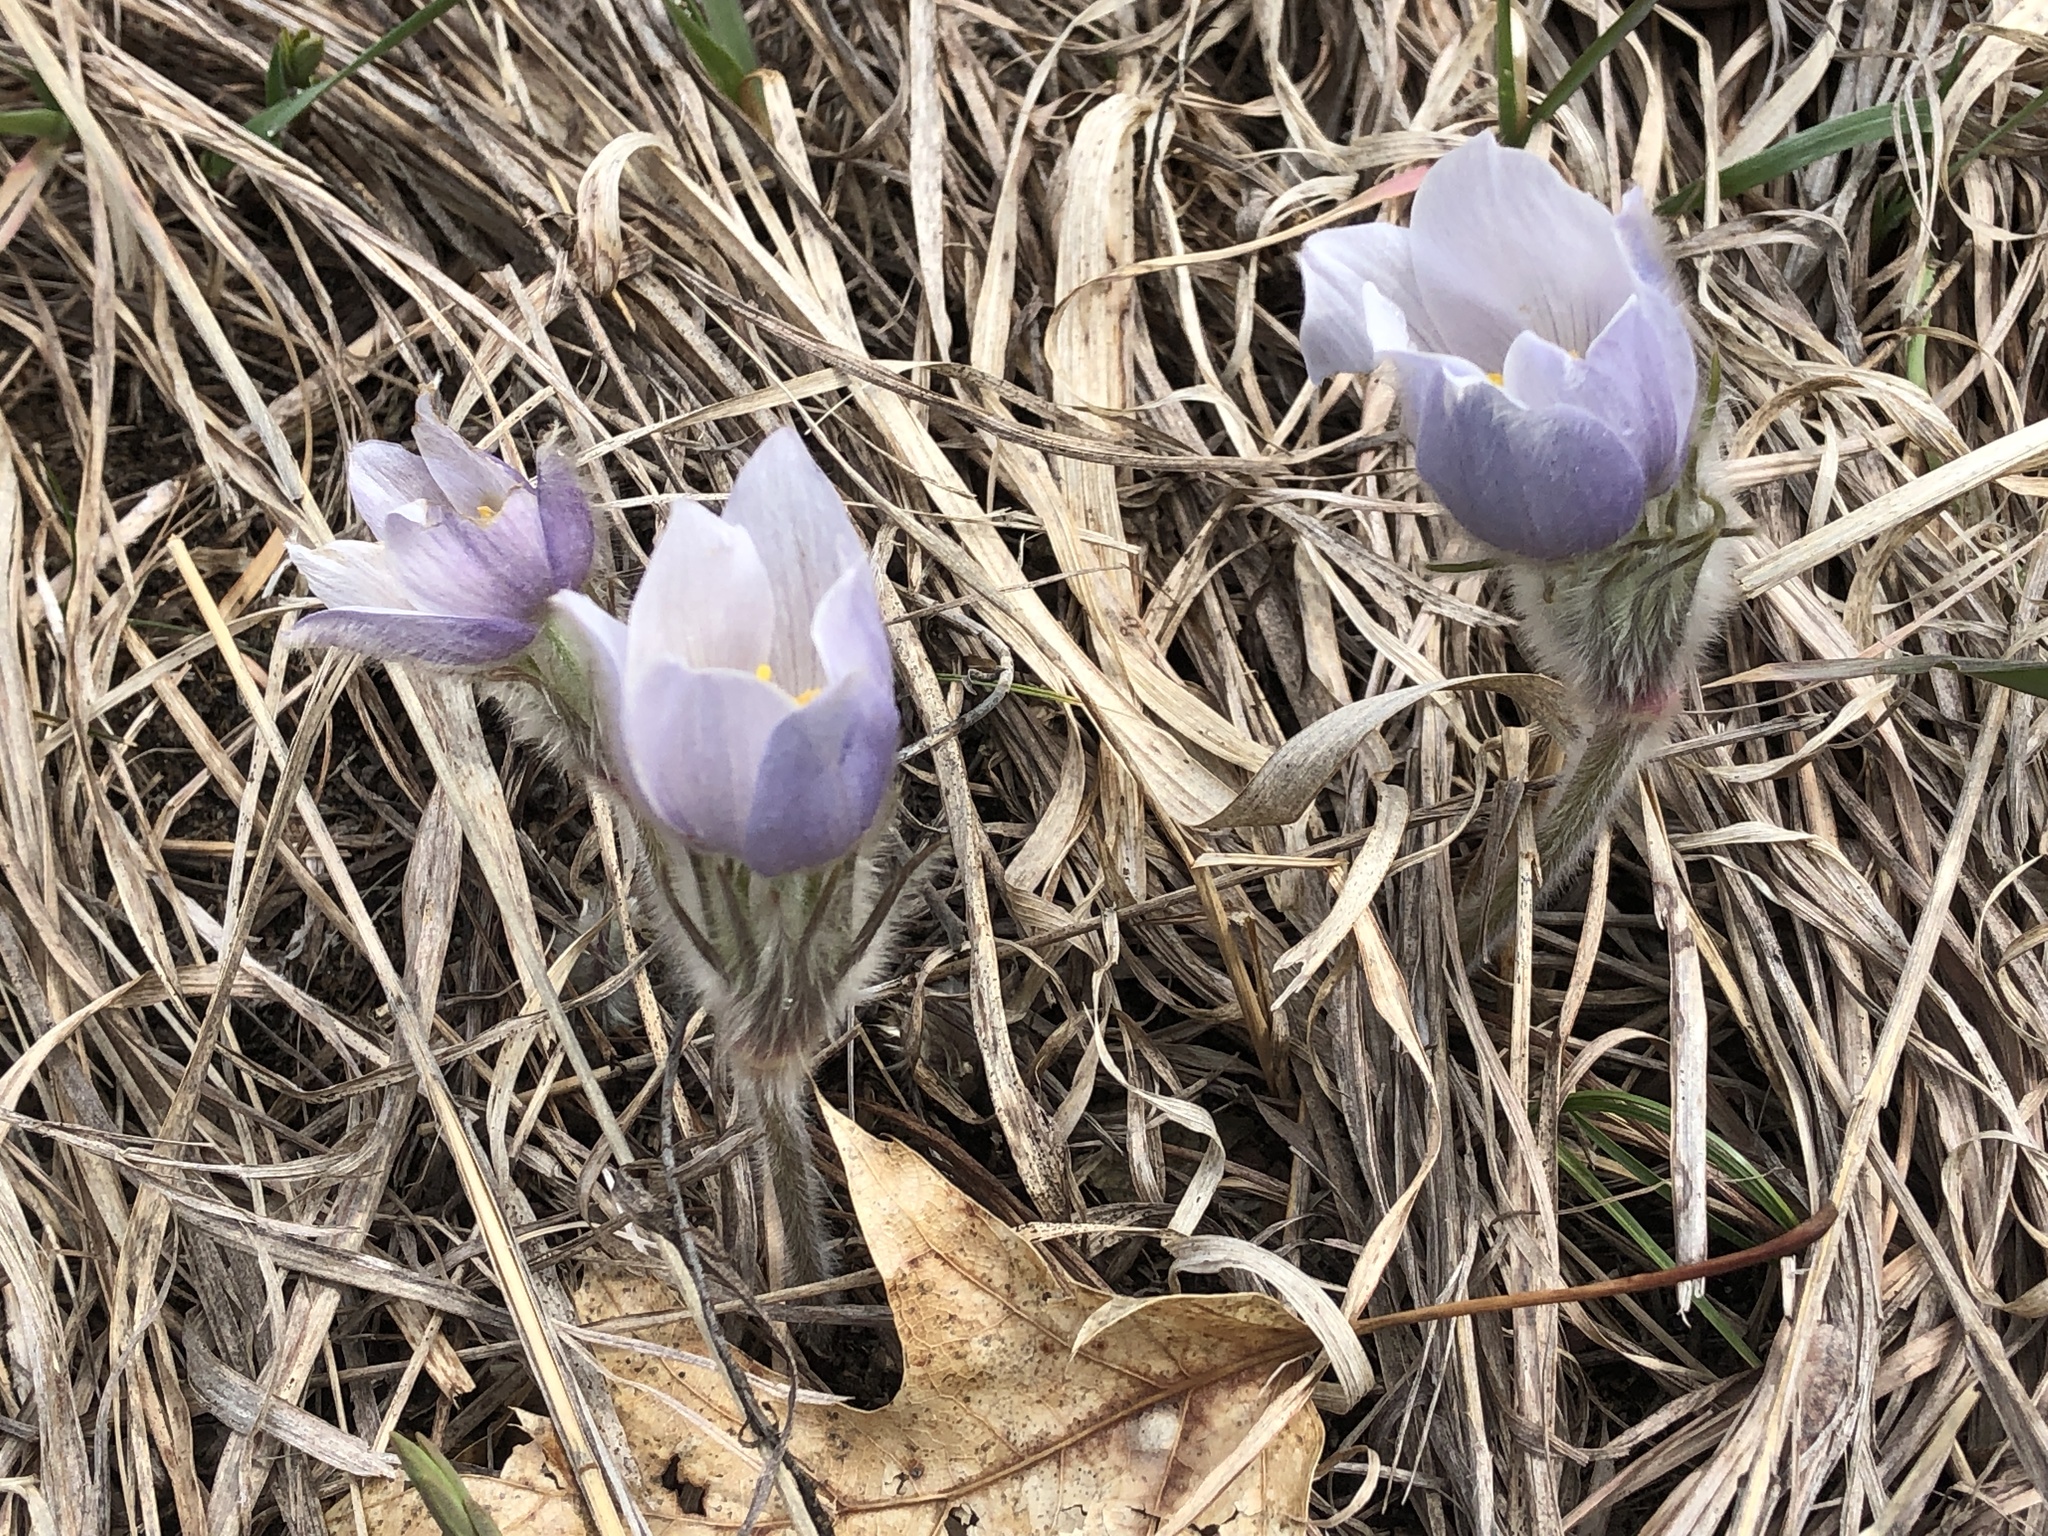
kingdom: Plantae
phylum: Tracheophyta
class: Magnoliopsida
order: Ranunculales
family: Ranunculaceae
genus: Pulsatilla
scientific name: Pulsatilla nuttalliana
